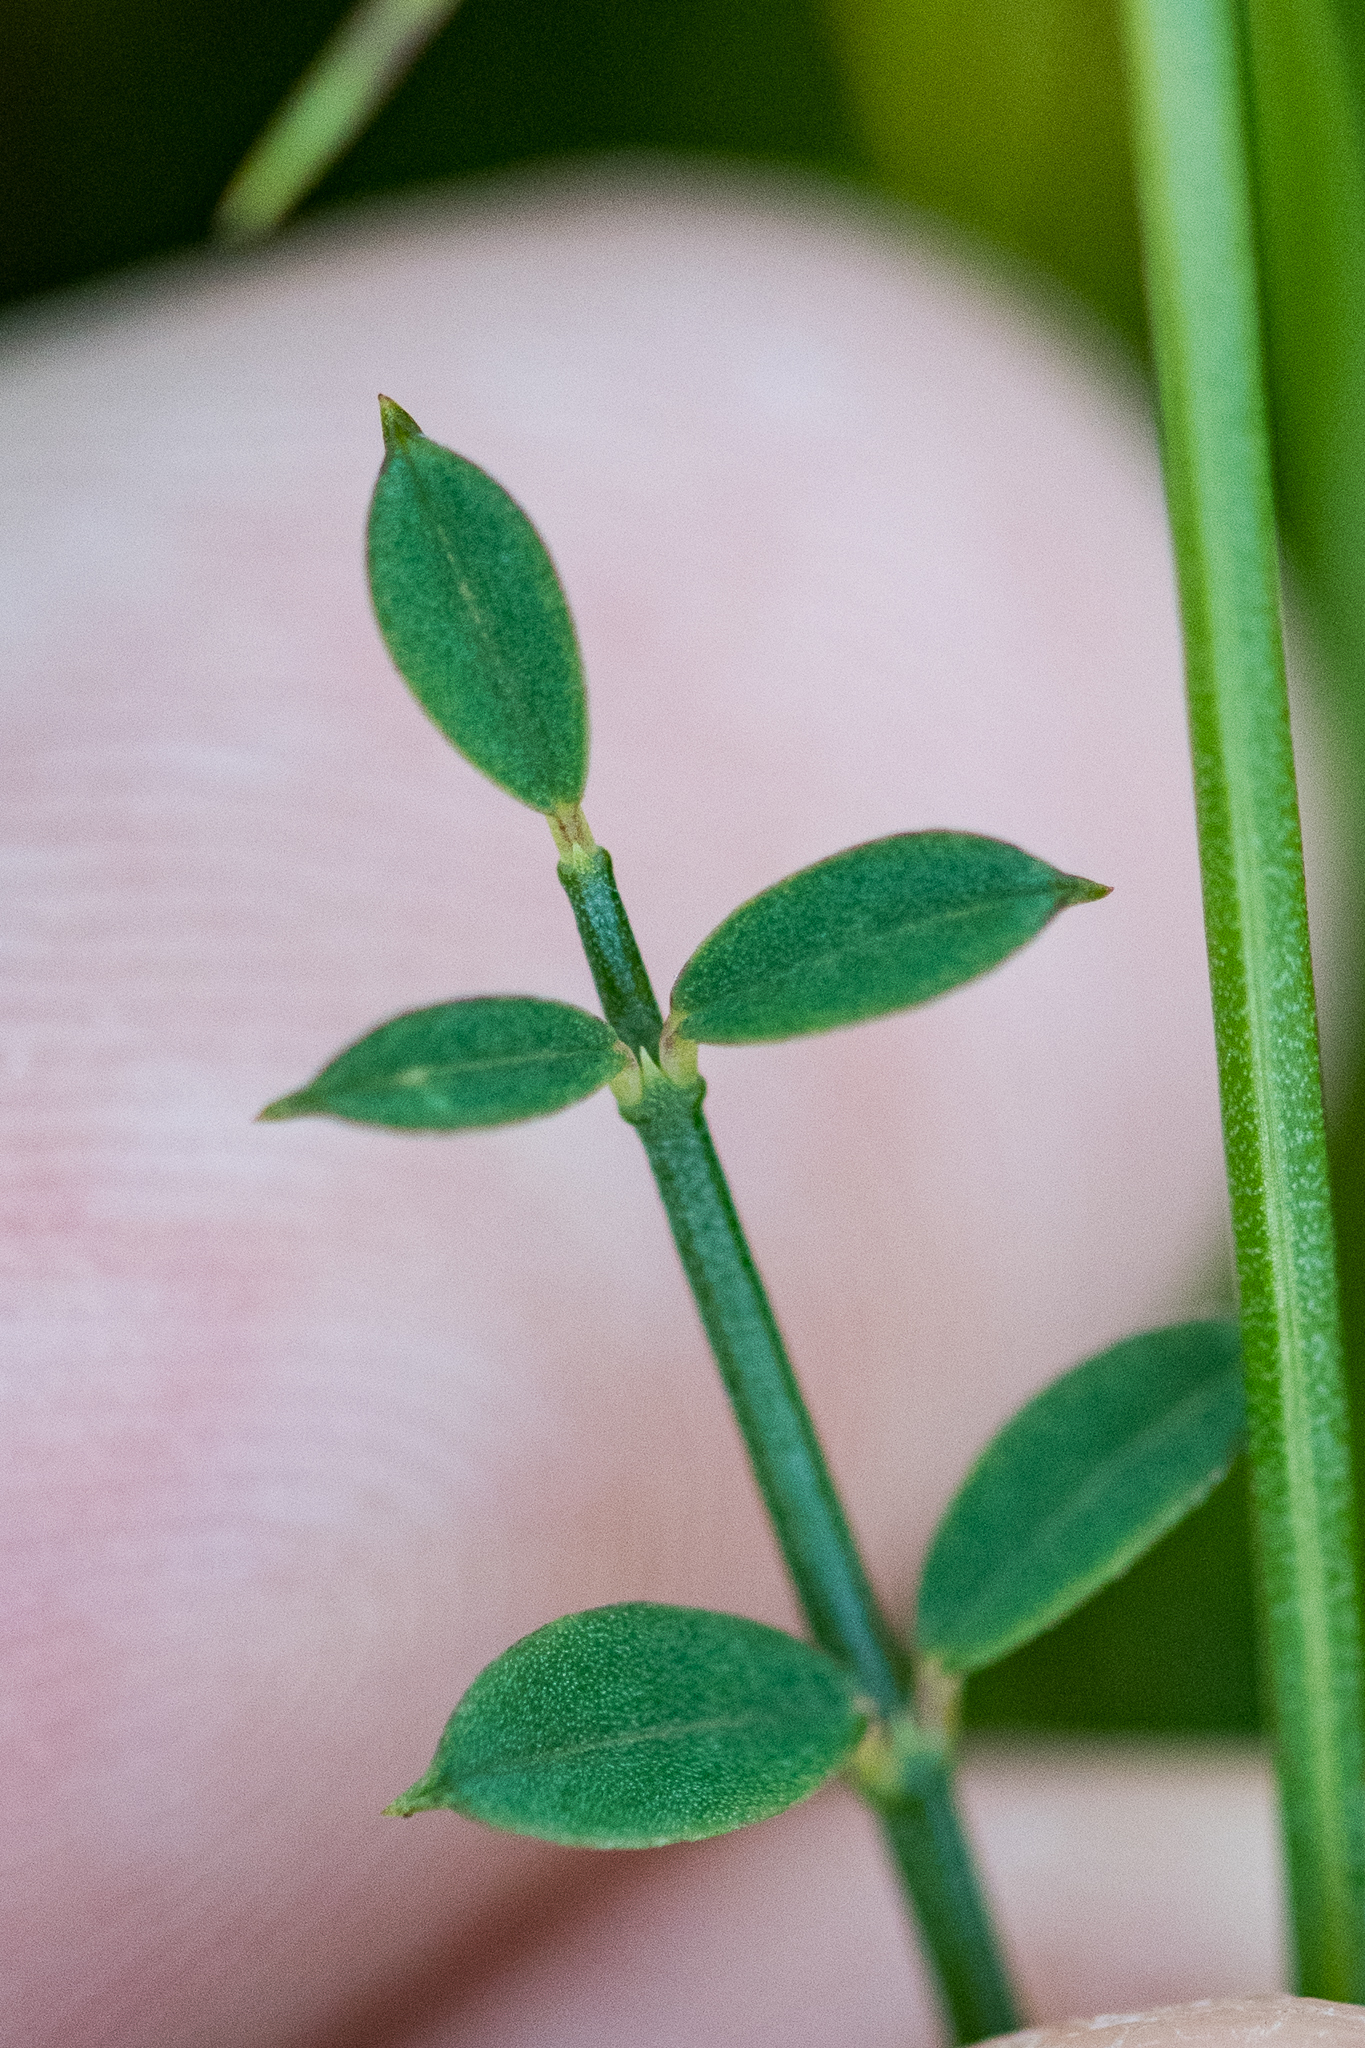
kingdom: Plantae
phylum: Tracheophyta
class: Magnoliopsida
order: Fabales
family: Fabaceae
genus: Indigofera
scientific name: Indigofera ionii
